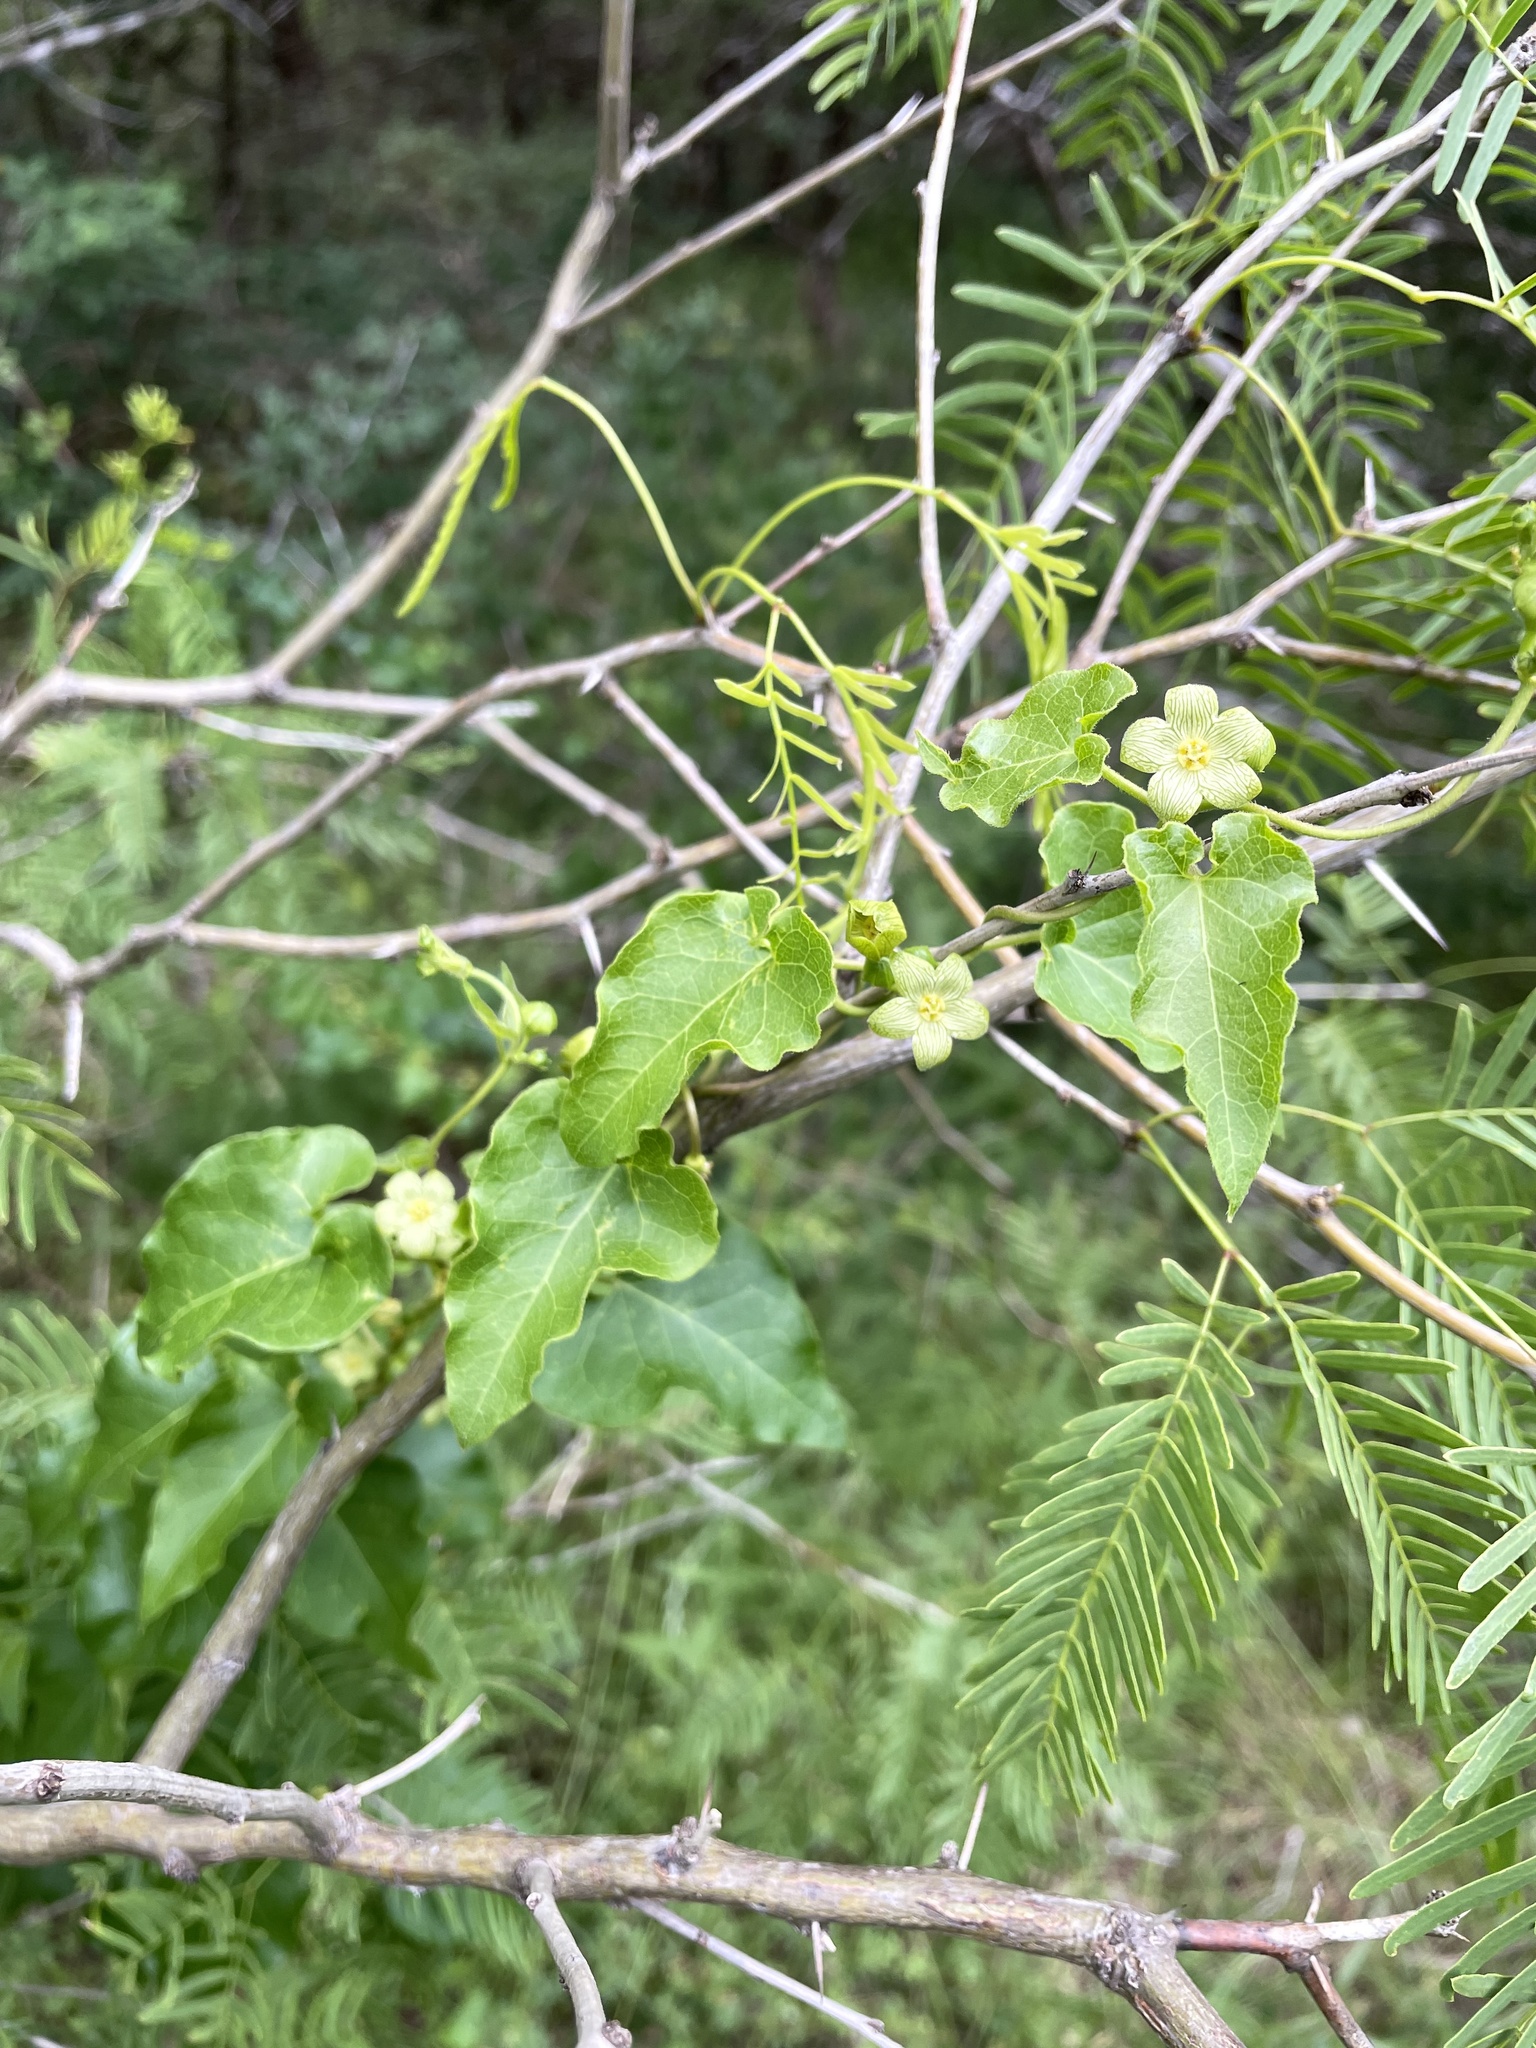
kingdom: Plantae
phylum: Tracheophyta
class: Magnoliopsida
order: Gentianales
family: Apocynaceae
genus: Matelea
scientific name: Matelea edwardsensis
